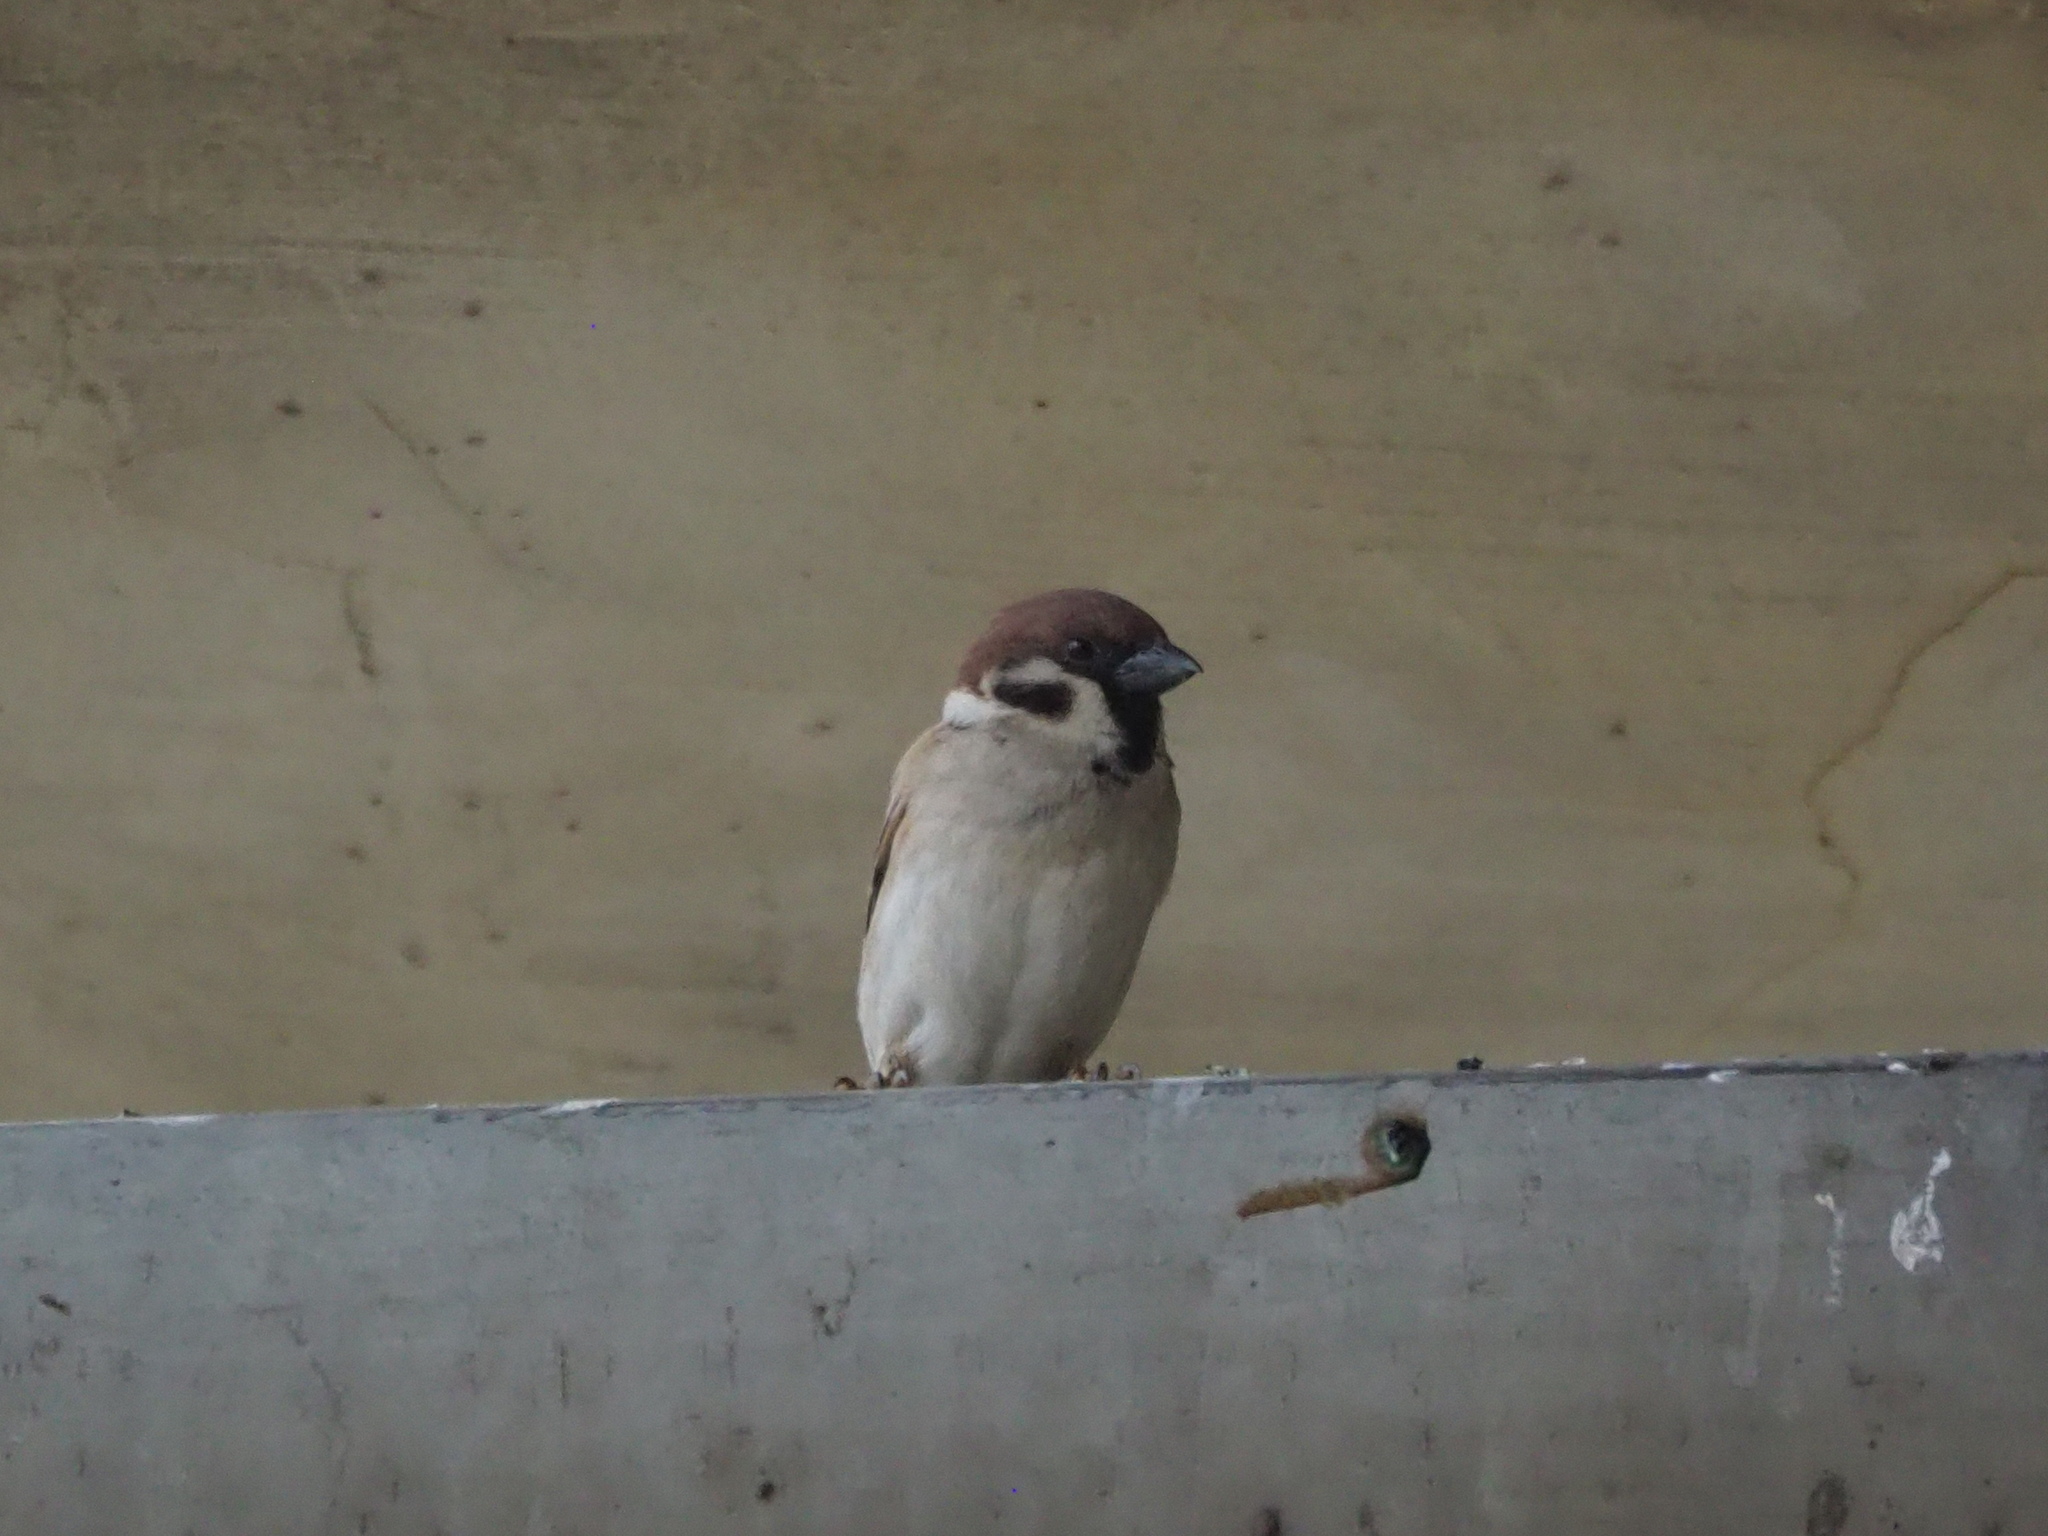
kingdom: Animalia
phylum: Chordata
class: Aves
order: Passeriformes
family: Passeridae
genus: Passer
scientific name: Passer montanus
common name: Eurasian tree sparrow
